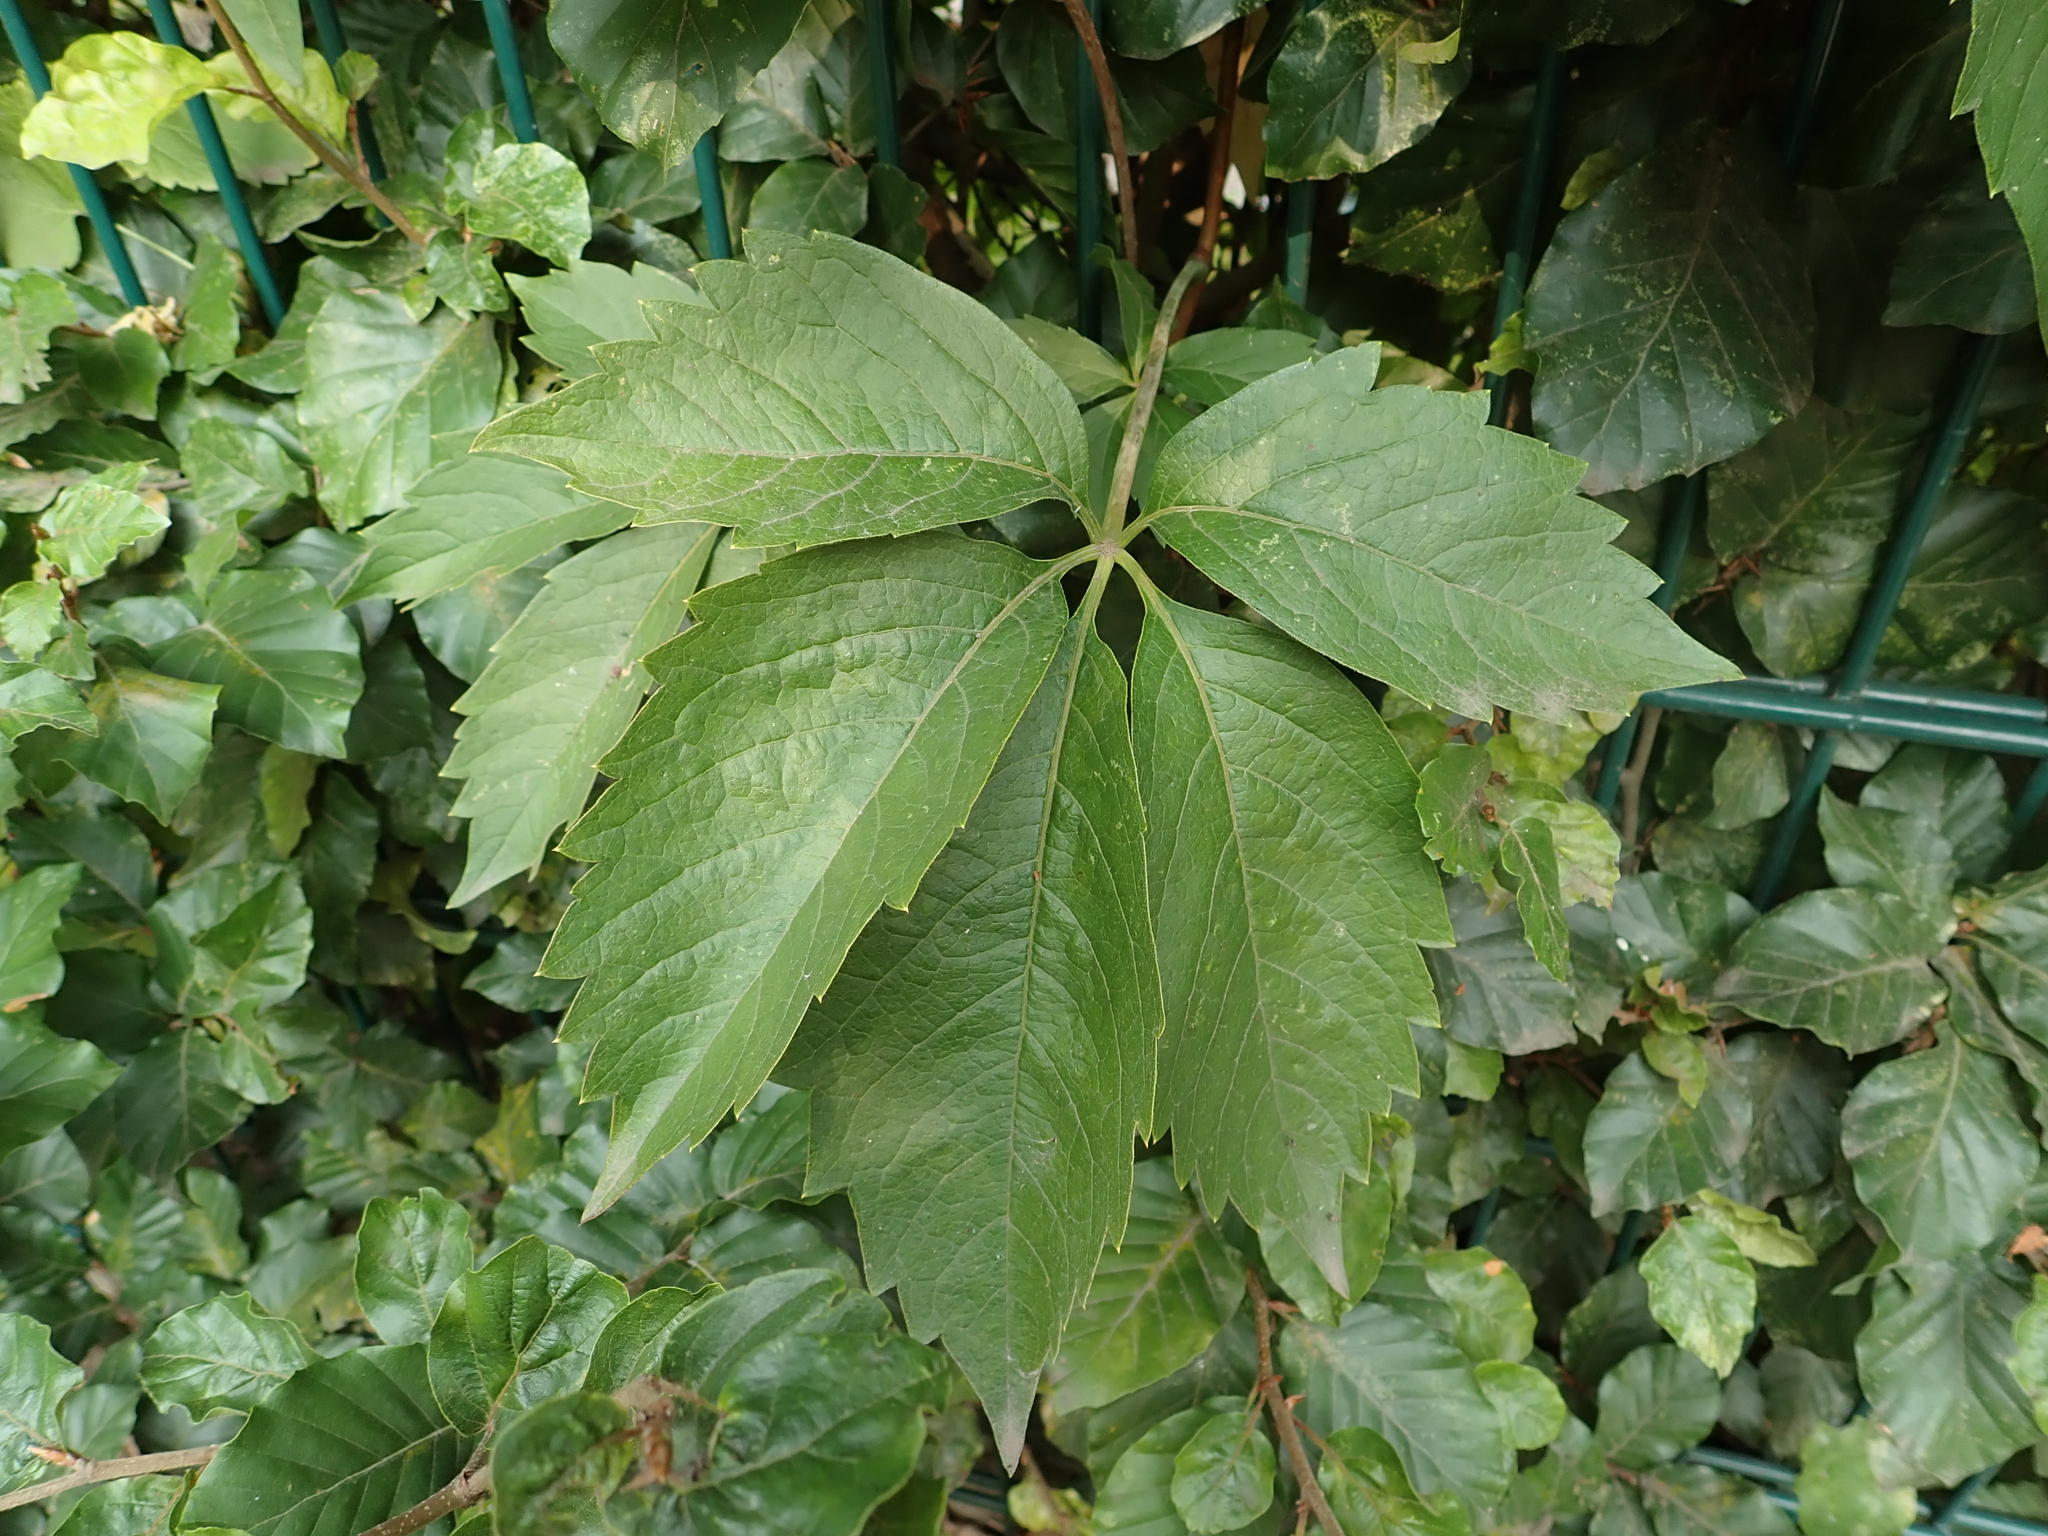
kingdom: Plantae
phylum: Tracheophyta
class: Magnoliopsida
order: Vitales
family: Vitaceae
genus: Parthenocissus
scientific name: Parthenocissus quinquefolia
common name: Virginia-creeper
